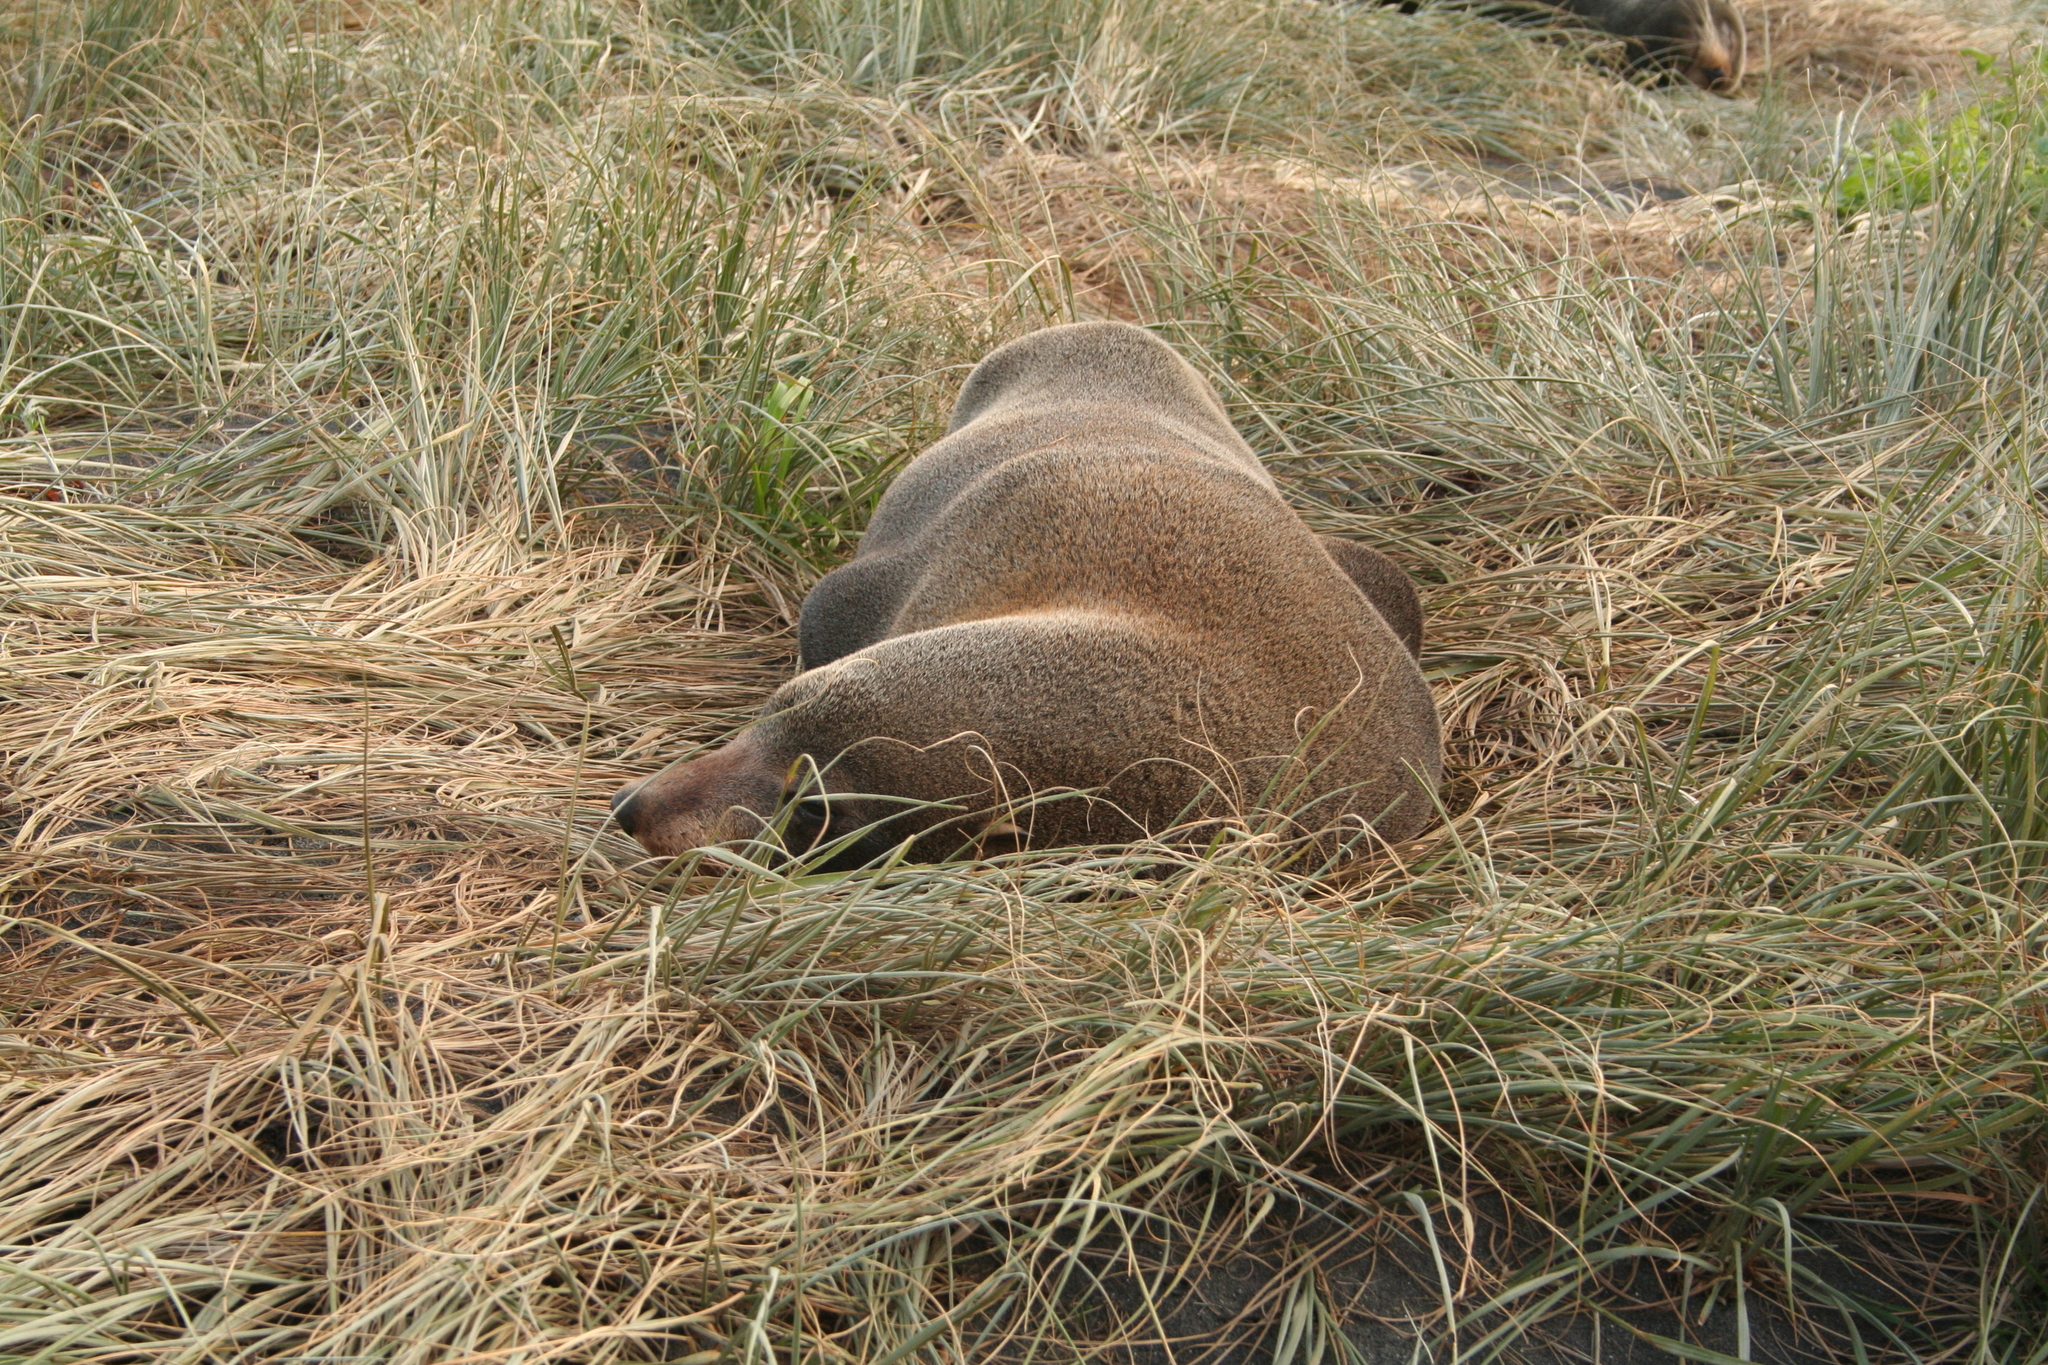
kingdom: Animalia
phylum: Chordata
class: Mammalia
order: Carnivora
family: Otariidae
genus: Arctocephalus
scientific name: Arctocephalus forsteri
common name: New zealand fur seal
